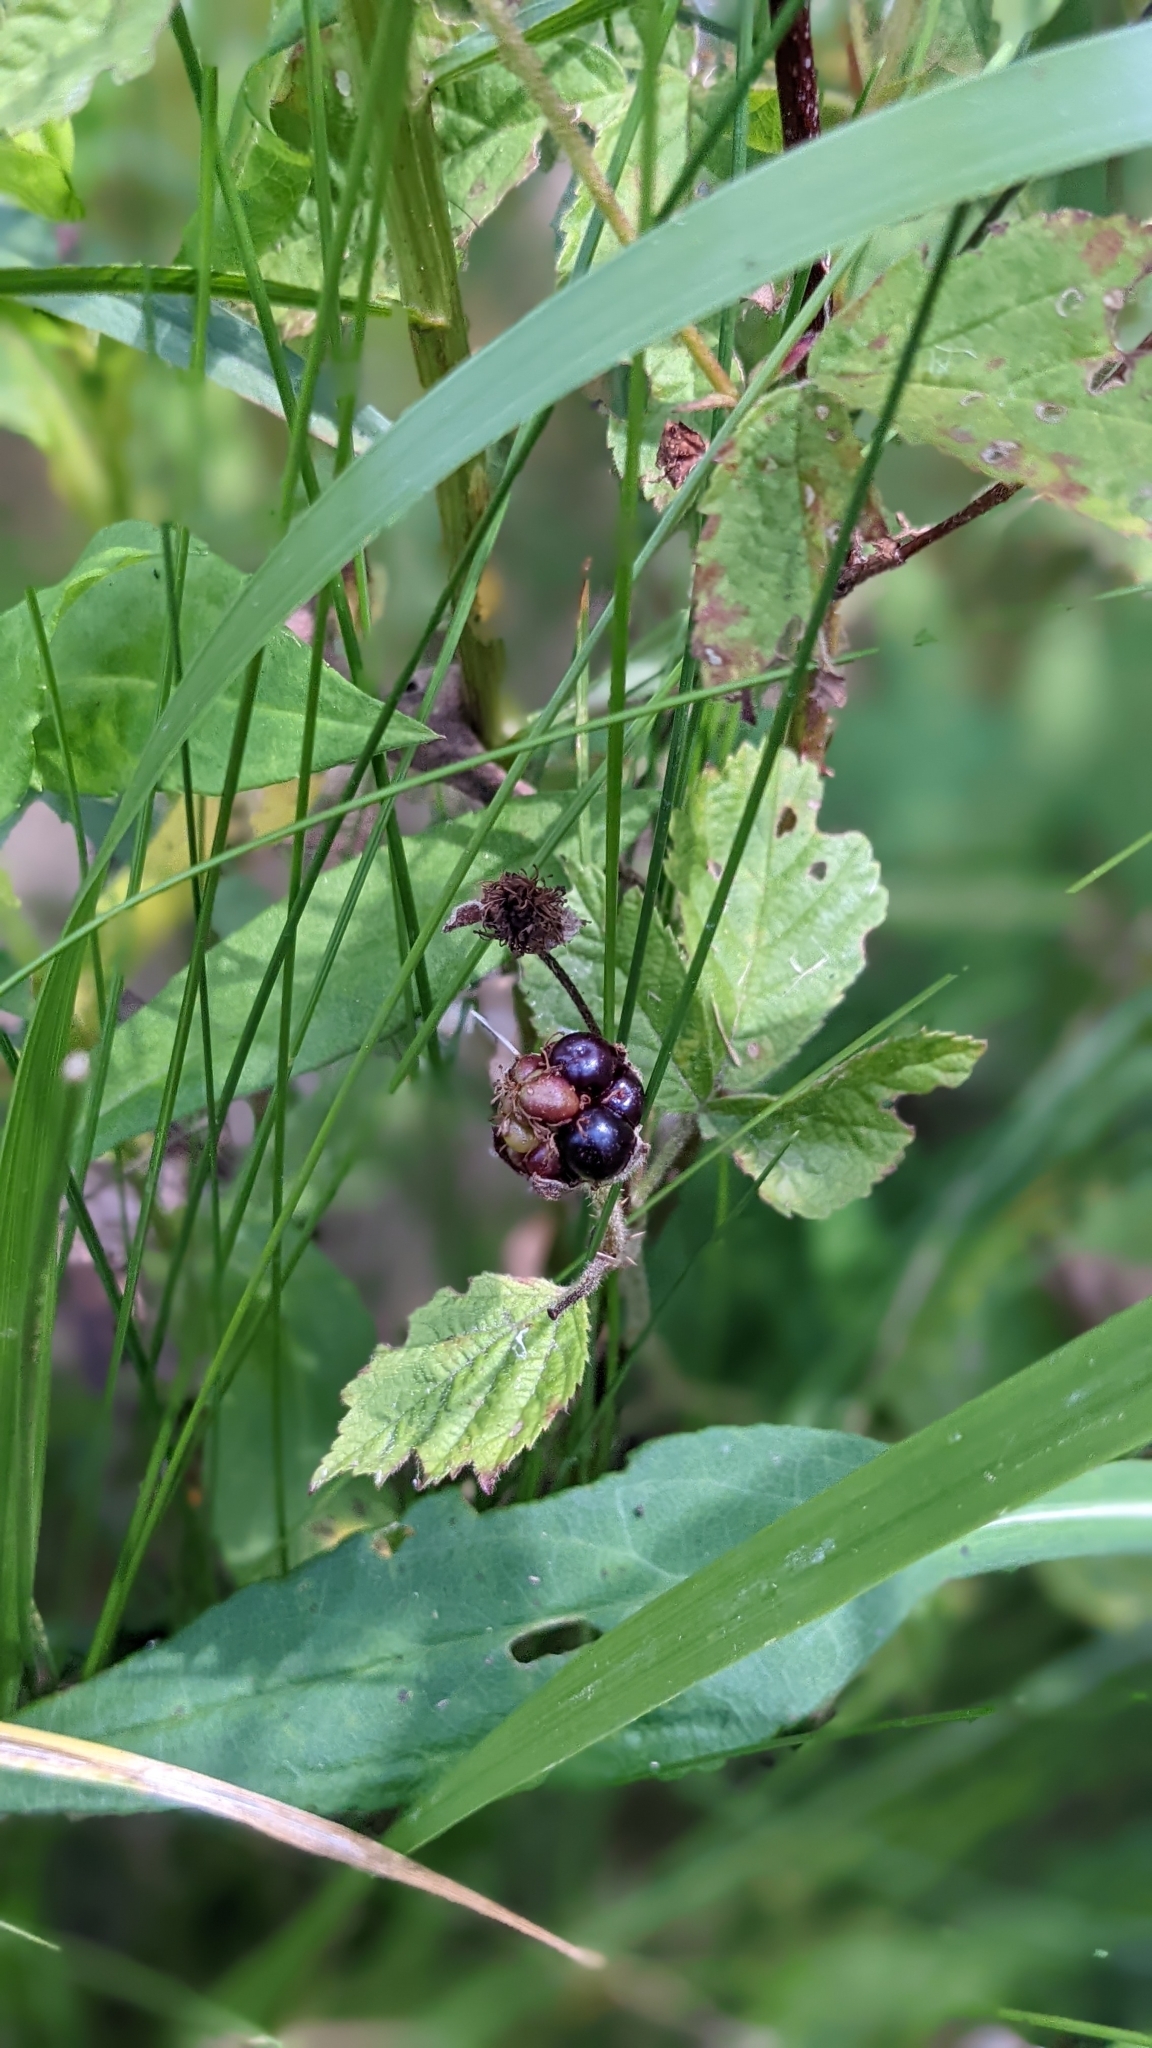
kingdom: Plantae
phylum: Tracheophyta
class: Magnoliopsida
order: Rosales
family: Rosaceae
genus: Rubus
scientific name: Rubus caesius
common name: Dewberry
